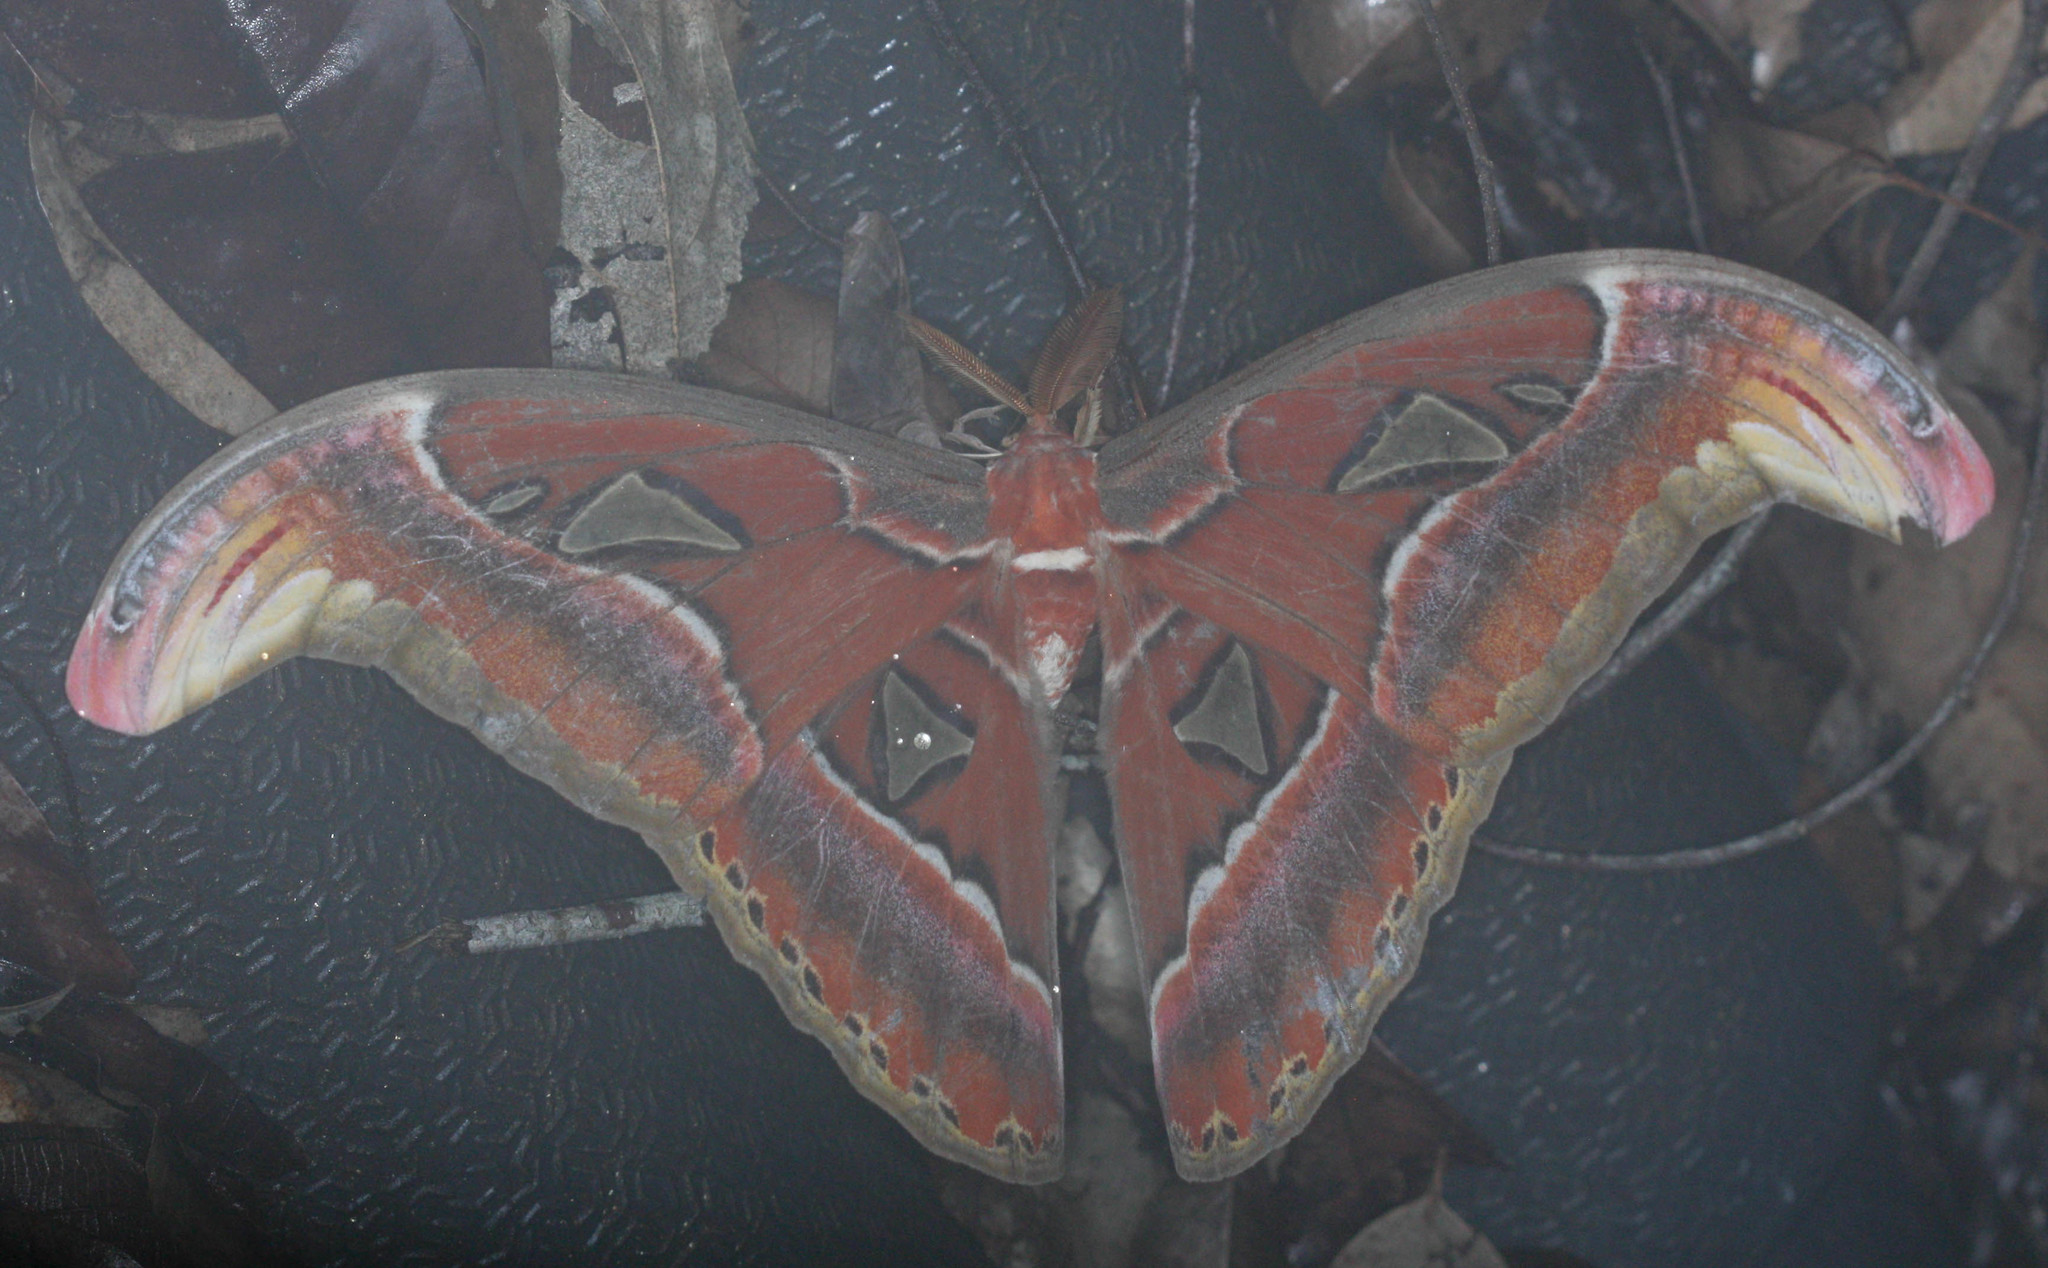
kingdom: Animalia
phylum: Arthropoda
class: Insecta
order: Lepidoptera
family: Saturniidae
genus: Attacus
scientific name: Attacus atlas
